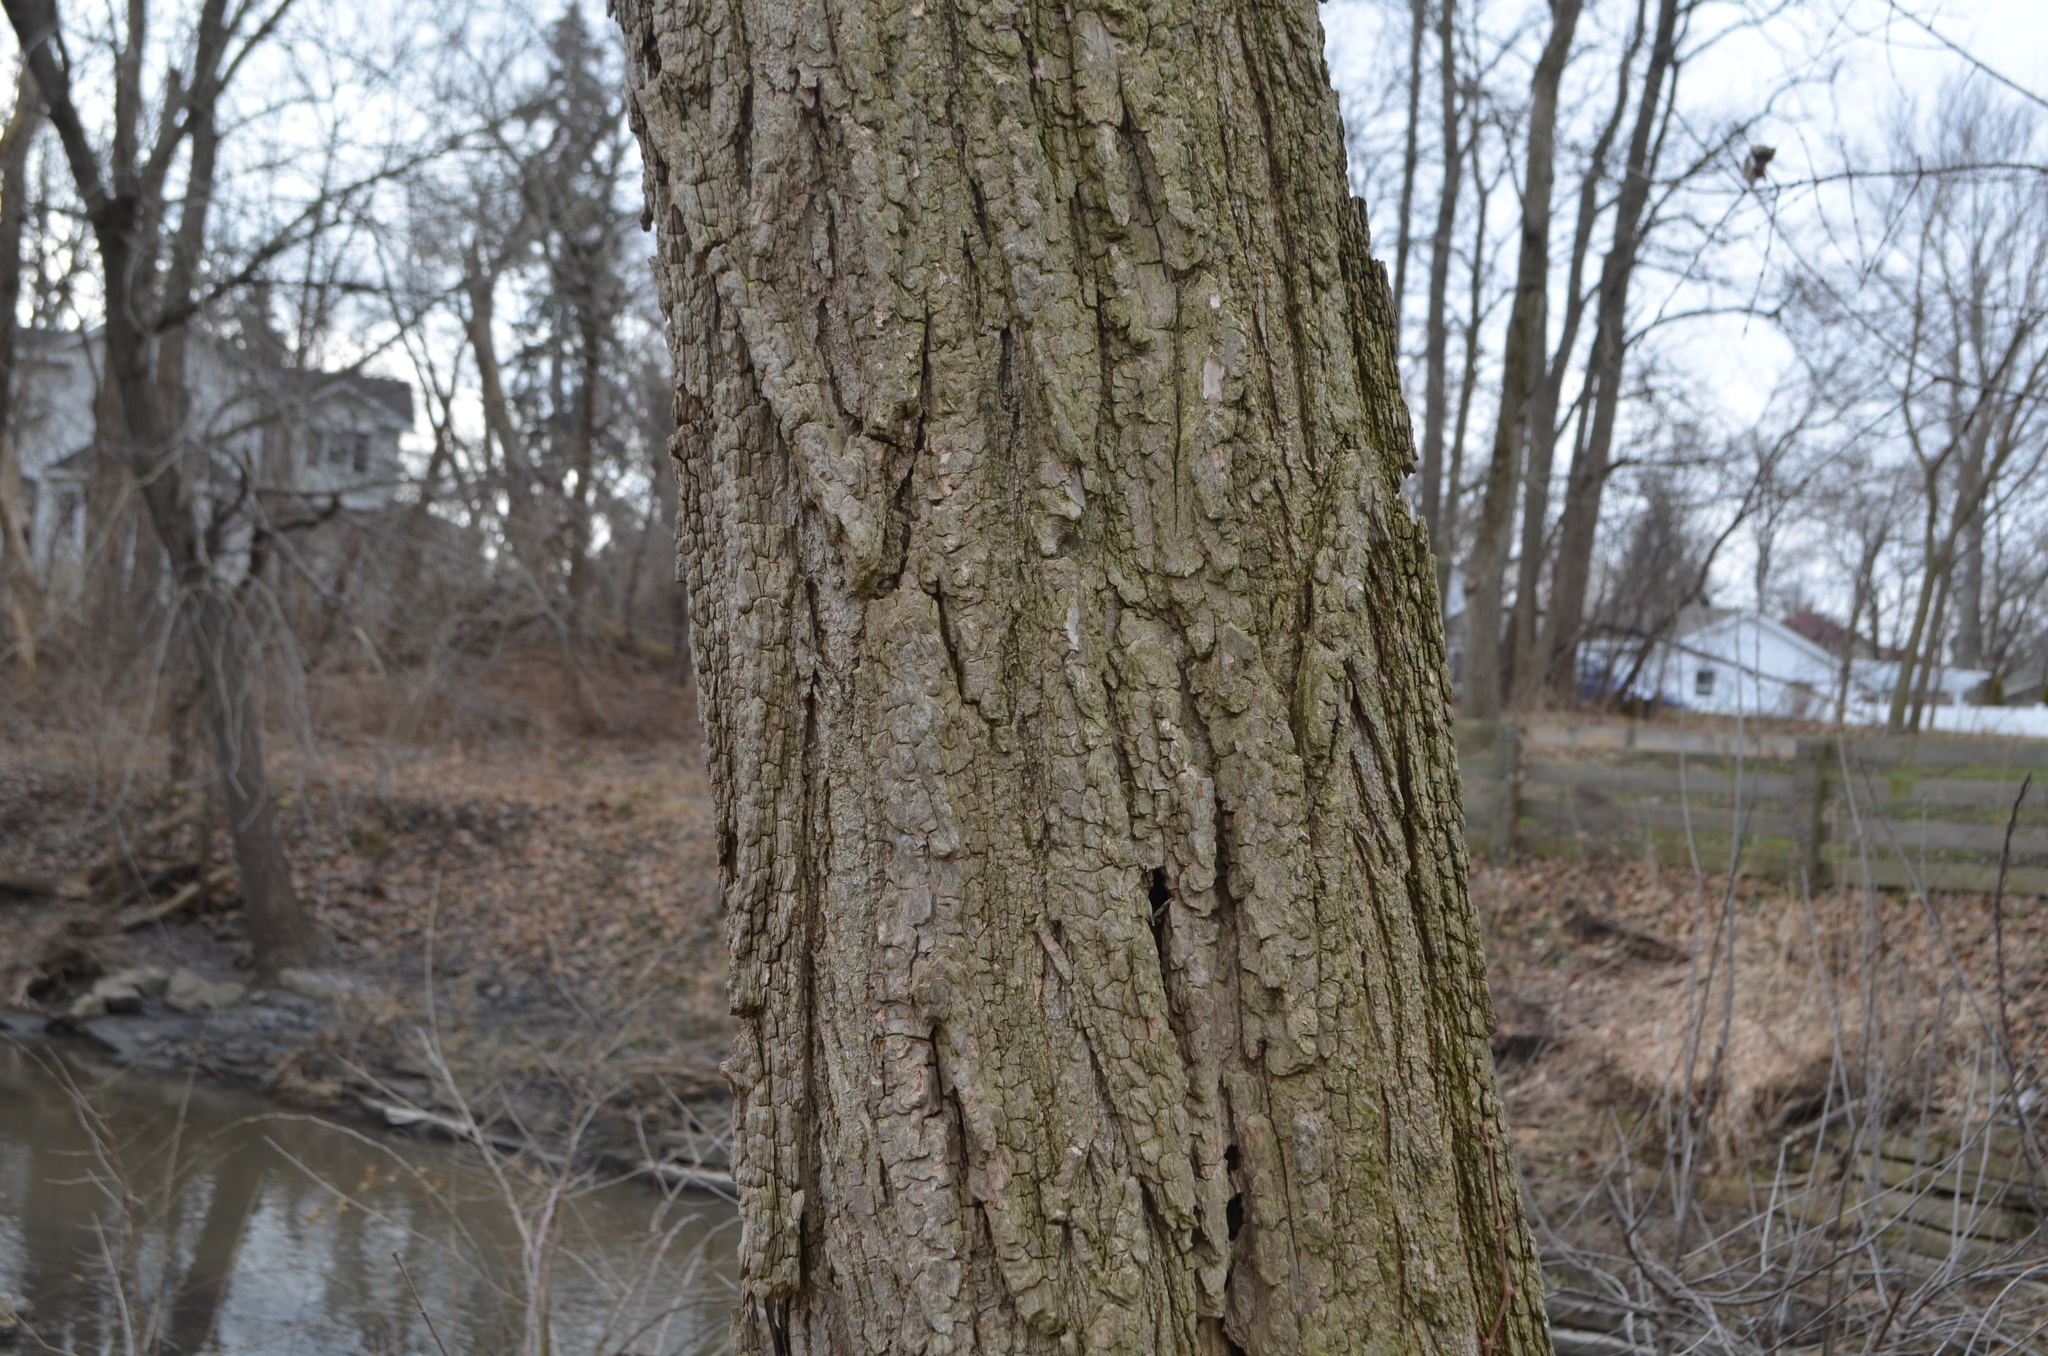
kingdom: Plantae
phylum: Tracheophyta
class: Magnoliopsida
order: Fabales
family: Fabaceae
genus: Robinia
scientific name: Robinia pseudoacacia
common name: Black locust
